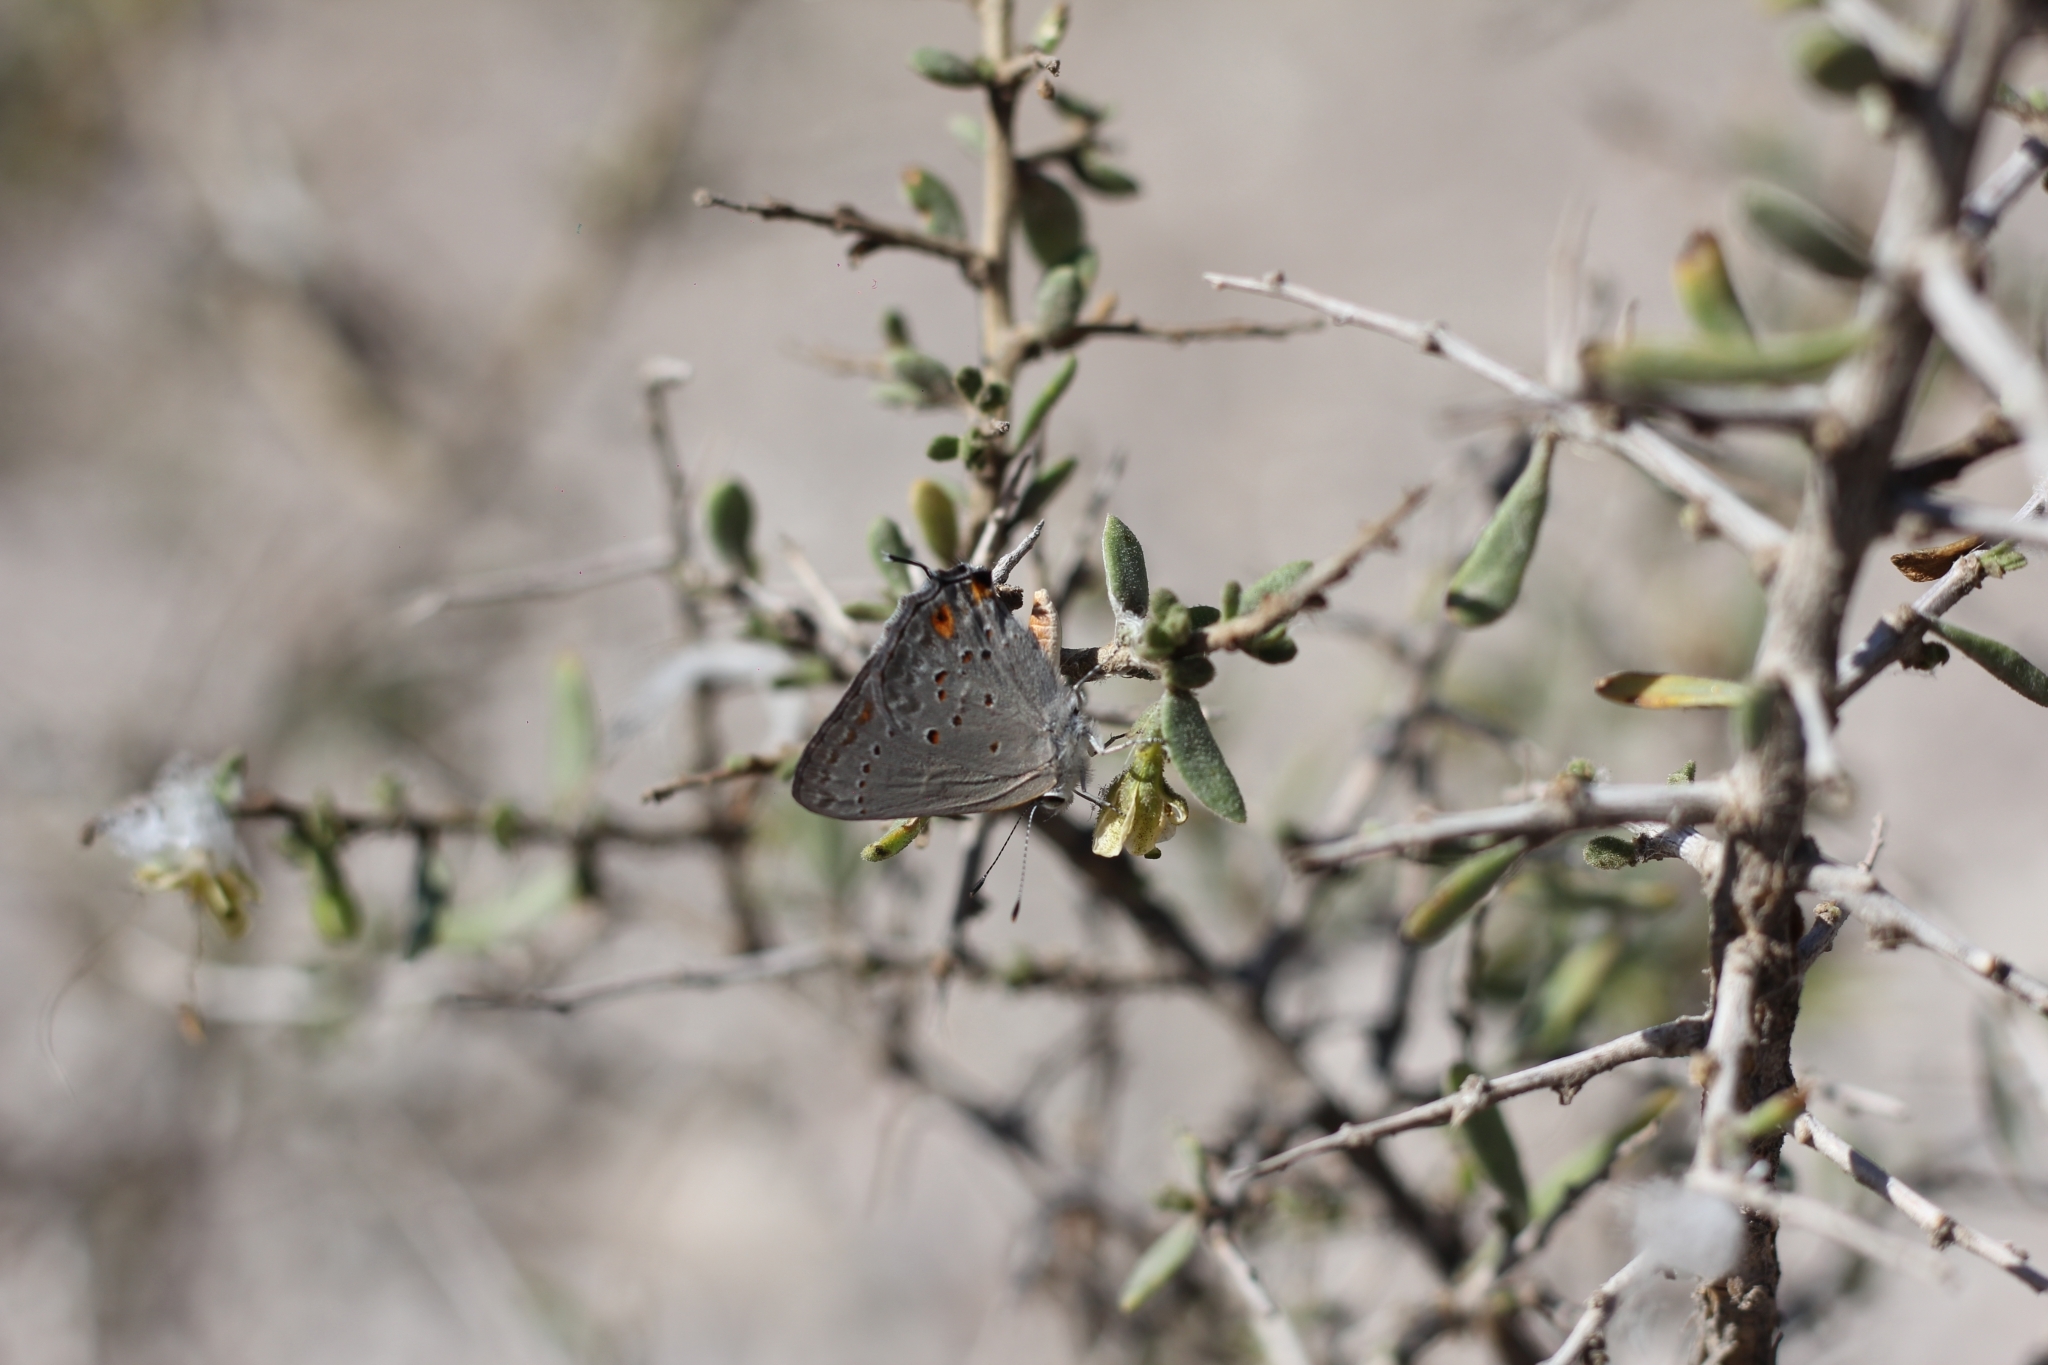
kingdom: Animalia
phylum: Arthropoda
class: Insecta
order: Lepidoptera
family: Lycaenidae
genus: Strymon
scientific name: Strymon eurytulus
